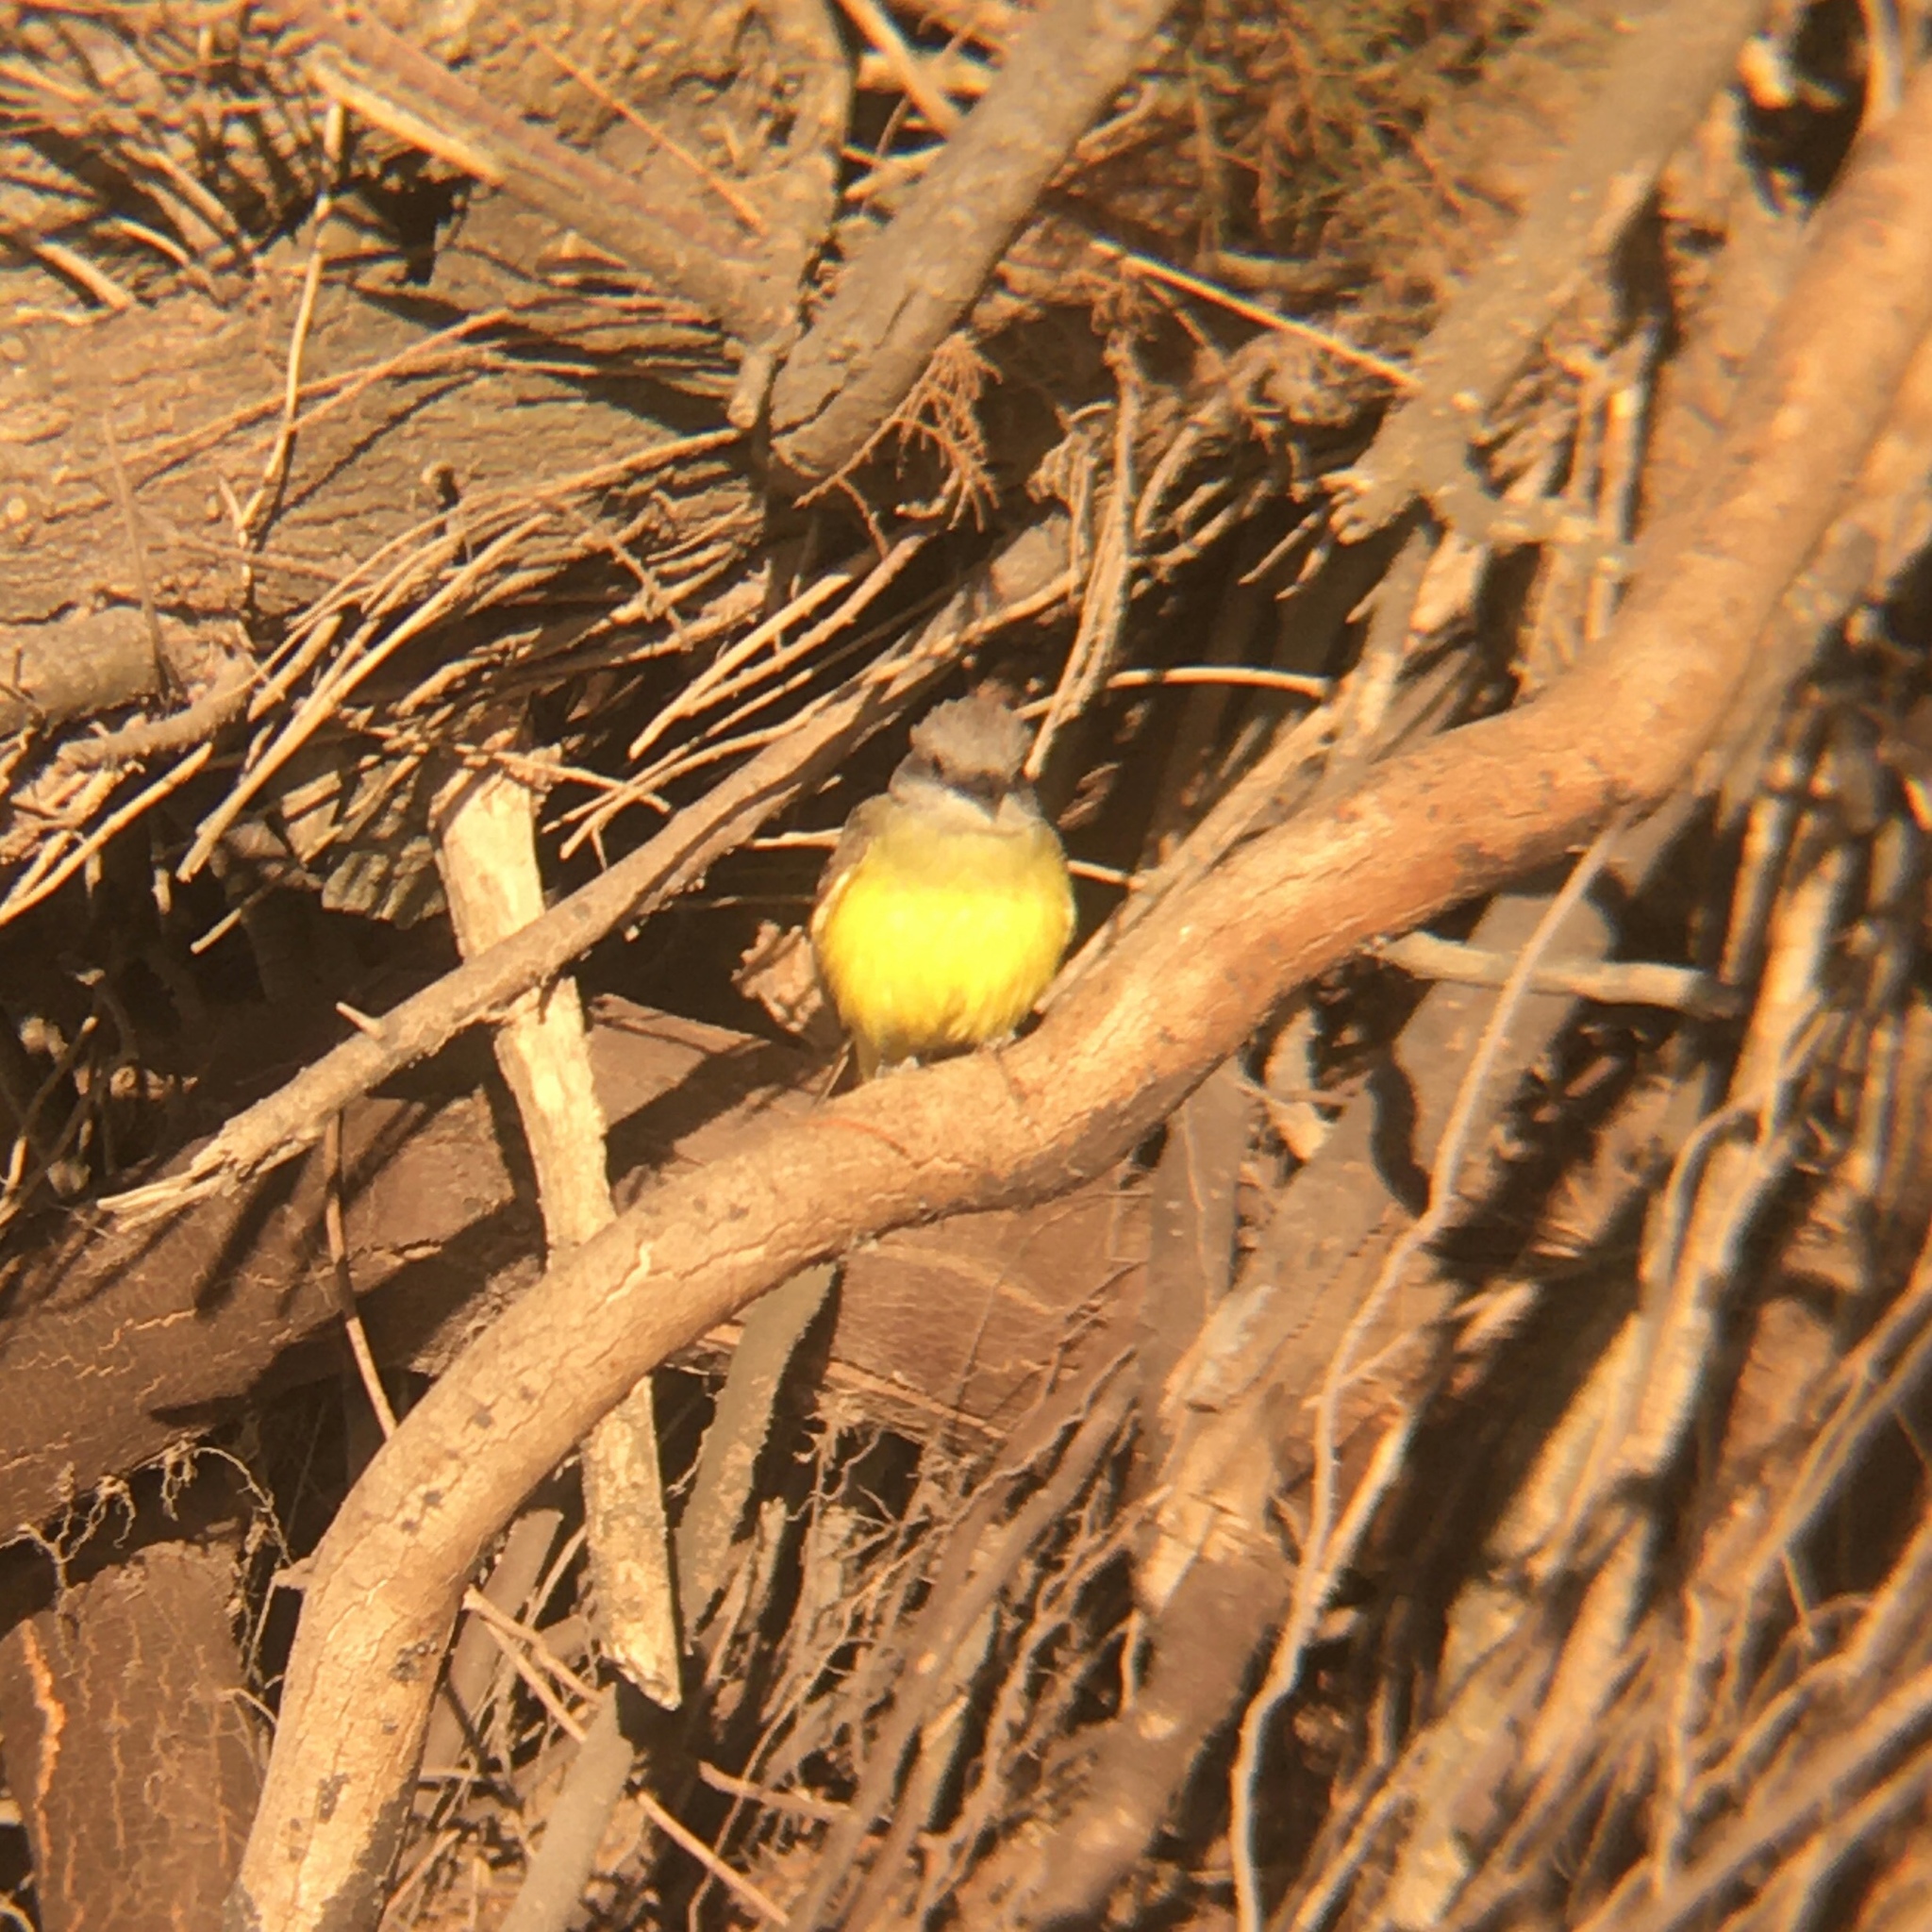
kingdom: Animalia
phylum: Chordata
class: Aves
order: Passeriformes
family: Tyrannidae
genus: Tyrannus
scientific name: Tyrannus melancholicus
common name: Tropical kingbird
